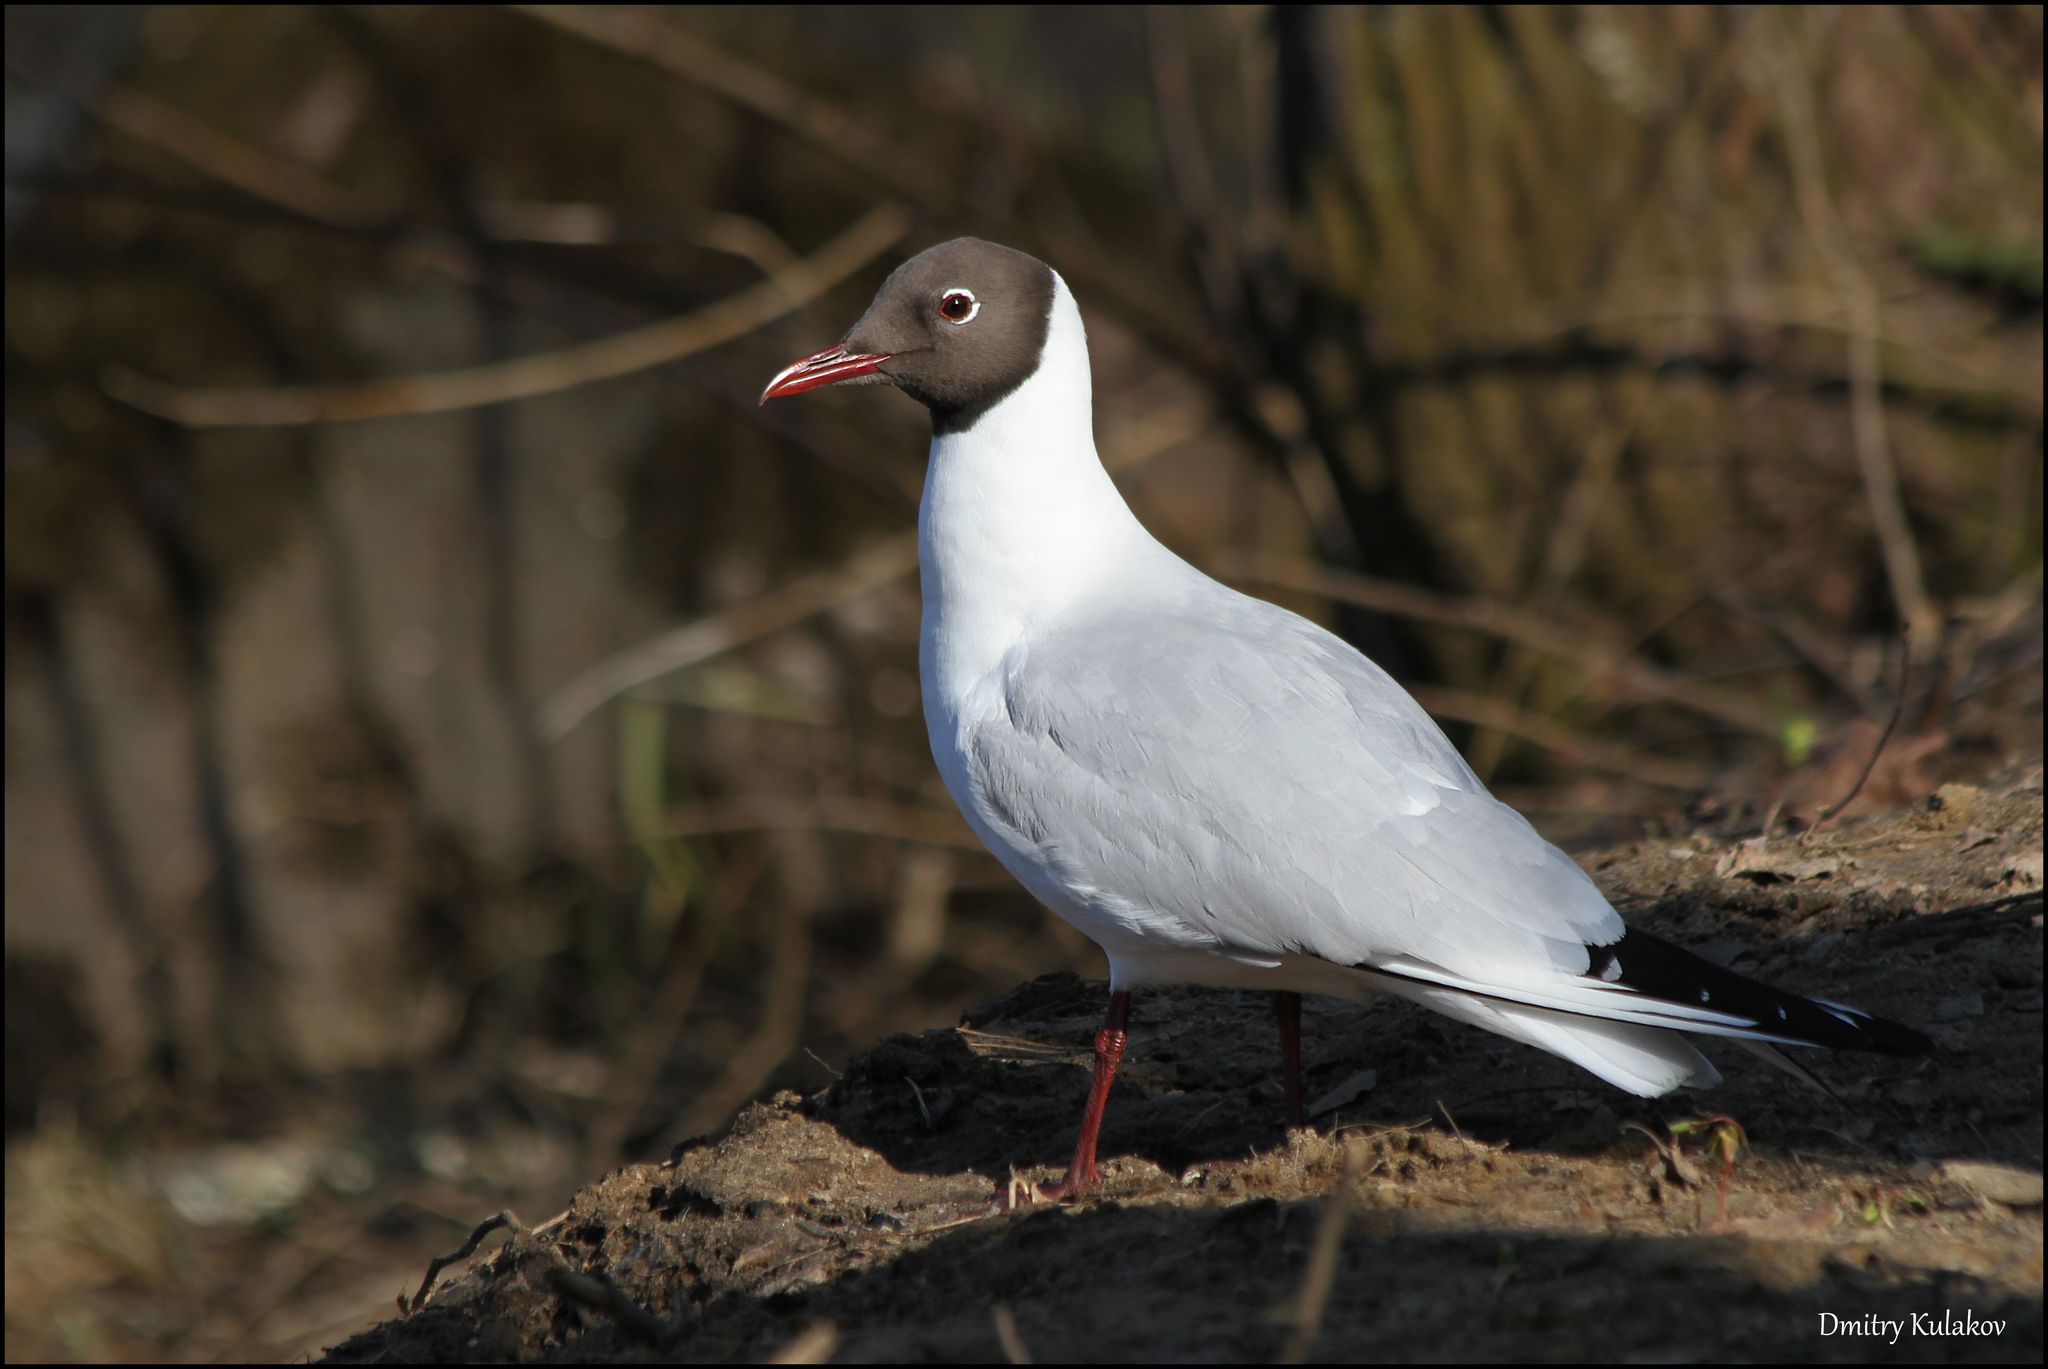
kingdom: Animalia
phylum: Chordata
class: Aves
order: Charadriiformes
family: Laridae
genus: Chroicocephalus
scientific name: Chroicocephalus ridibundus
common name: Black-headed gull
